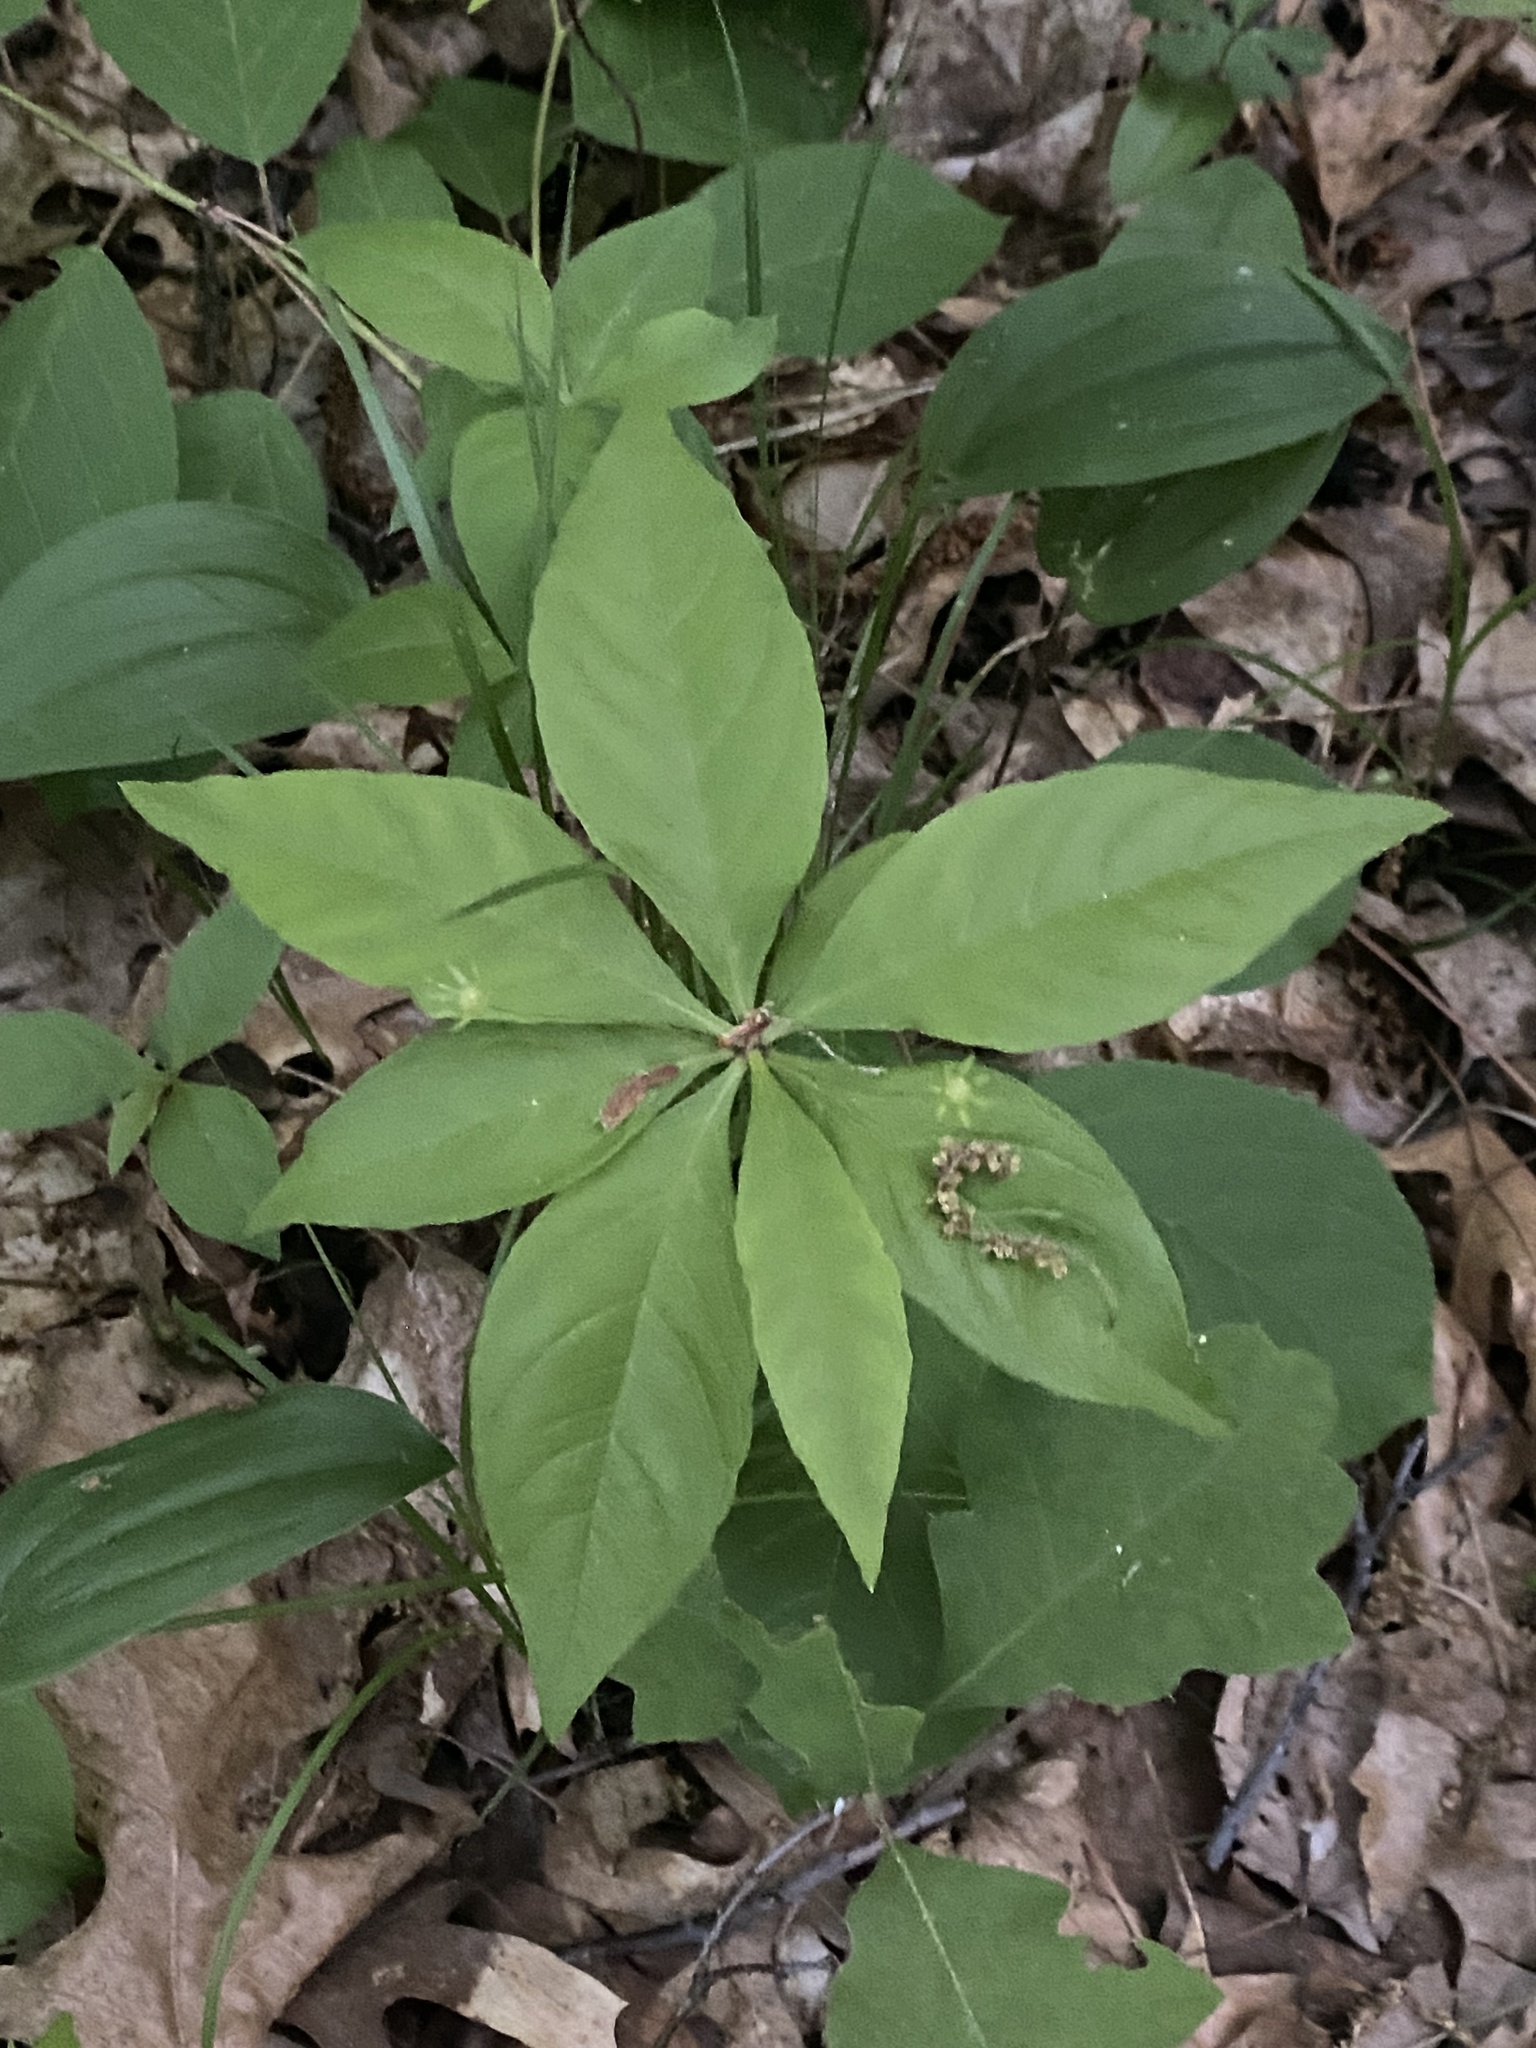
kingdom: Plantae
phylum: Tracheophyta
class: Magnoliopsida
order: Ericales
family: Primulaceae
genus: Lysimachia
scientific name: Lysimachia borealis
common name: American starflower
